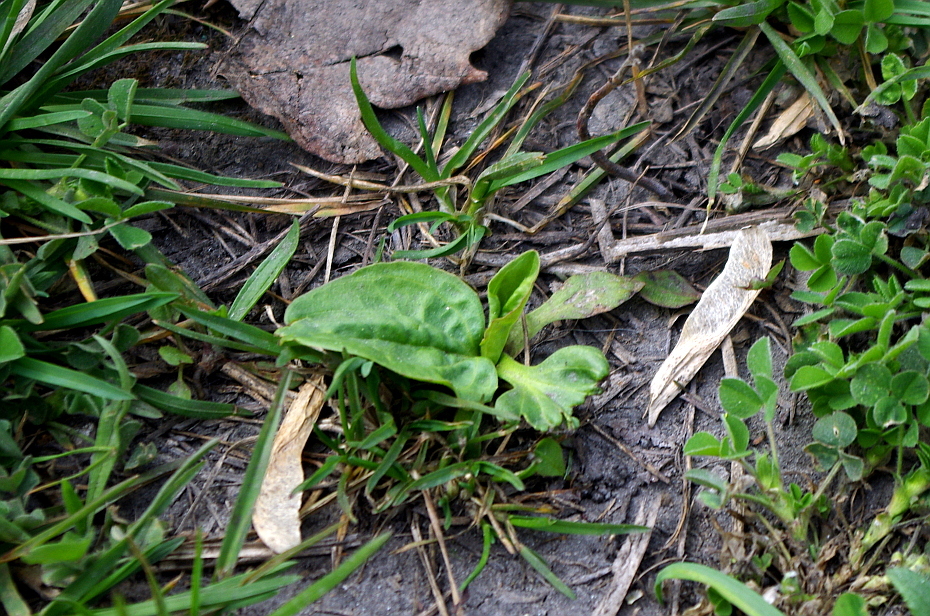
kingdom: Plantae
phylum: Tracheophyta
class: Magnoliopsida
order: Lamiales
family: Plantaginaceae
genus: Plantago
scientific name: Plantago major
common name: Common plantain
